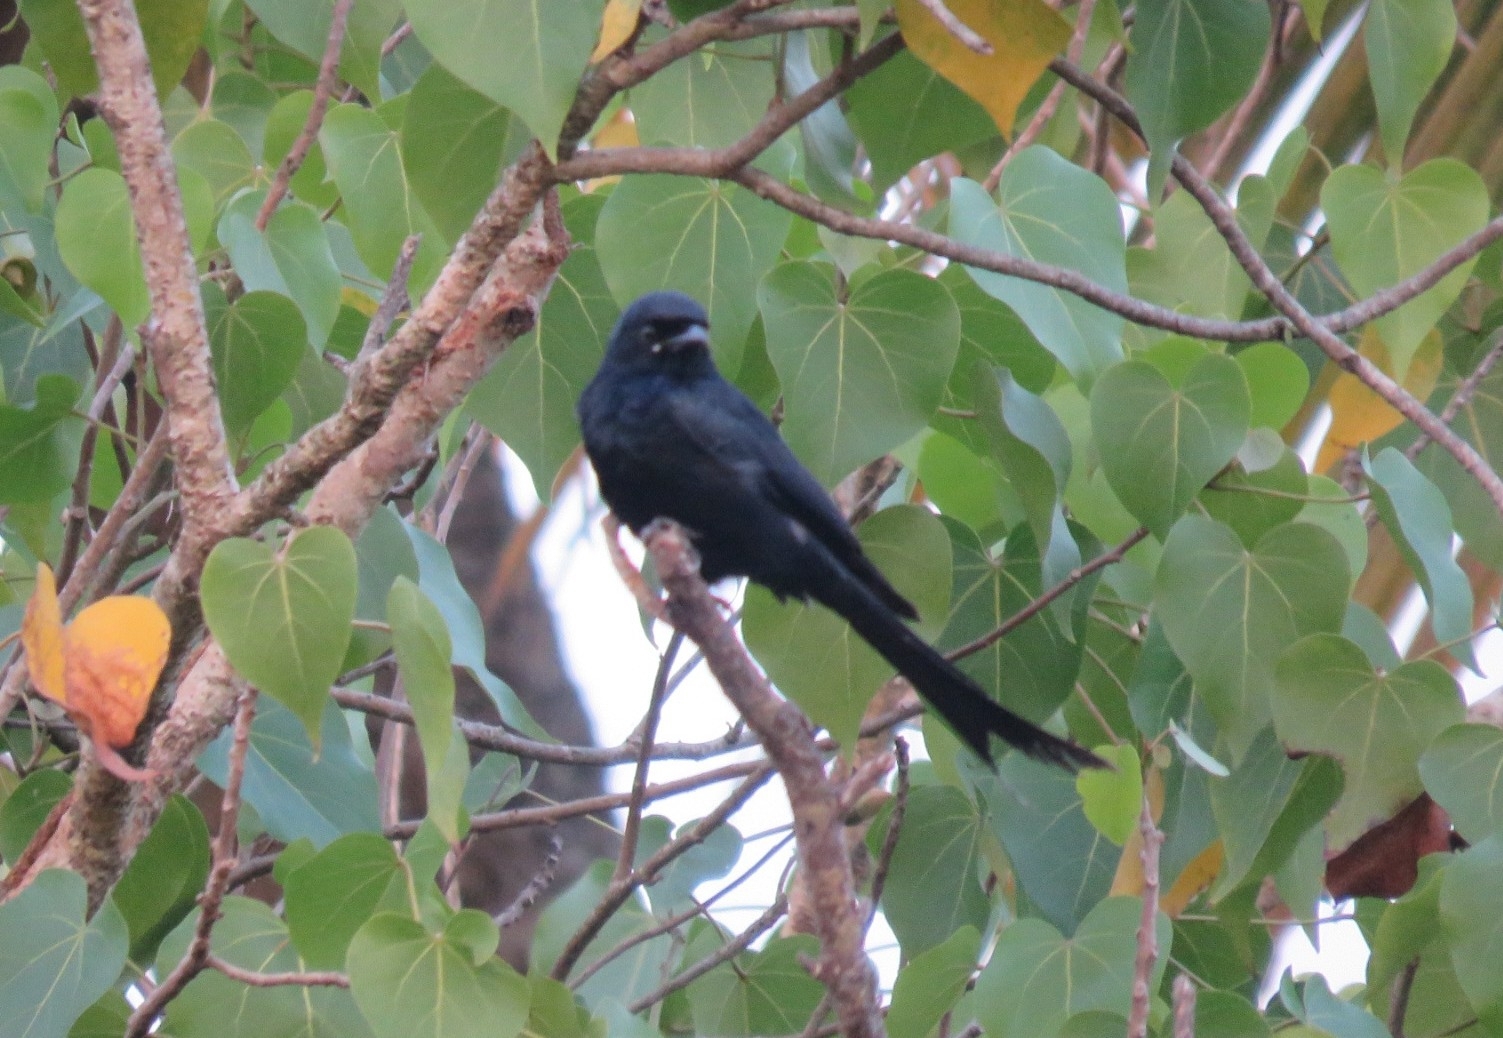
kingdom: Animalia
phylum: Chordata
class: Aves
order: Passeriformes
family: Dicruridae
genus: Dicrurus
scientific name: Dicrurus macrocercus
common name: Black drongo
